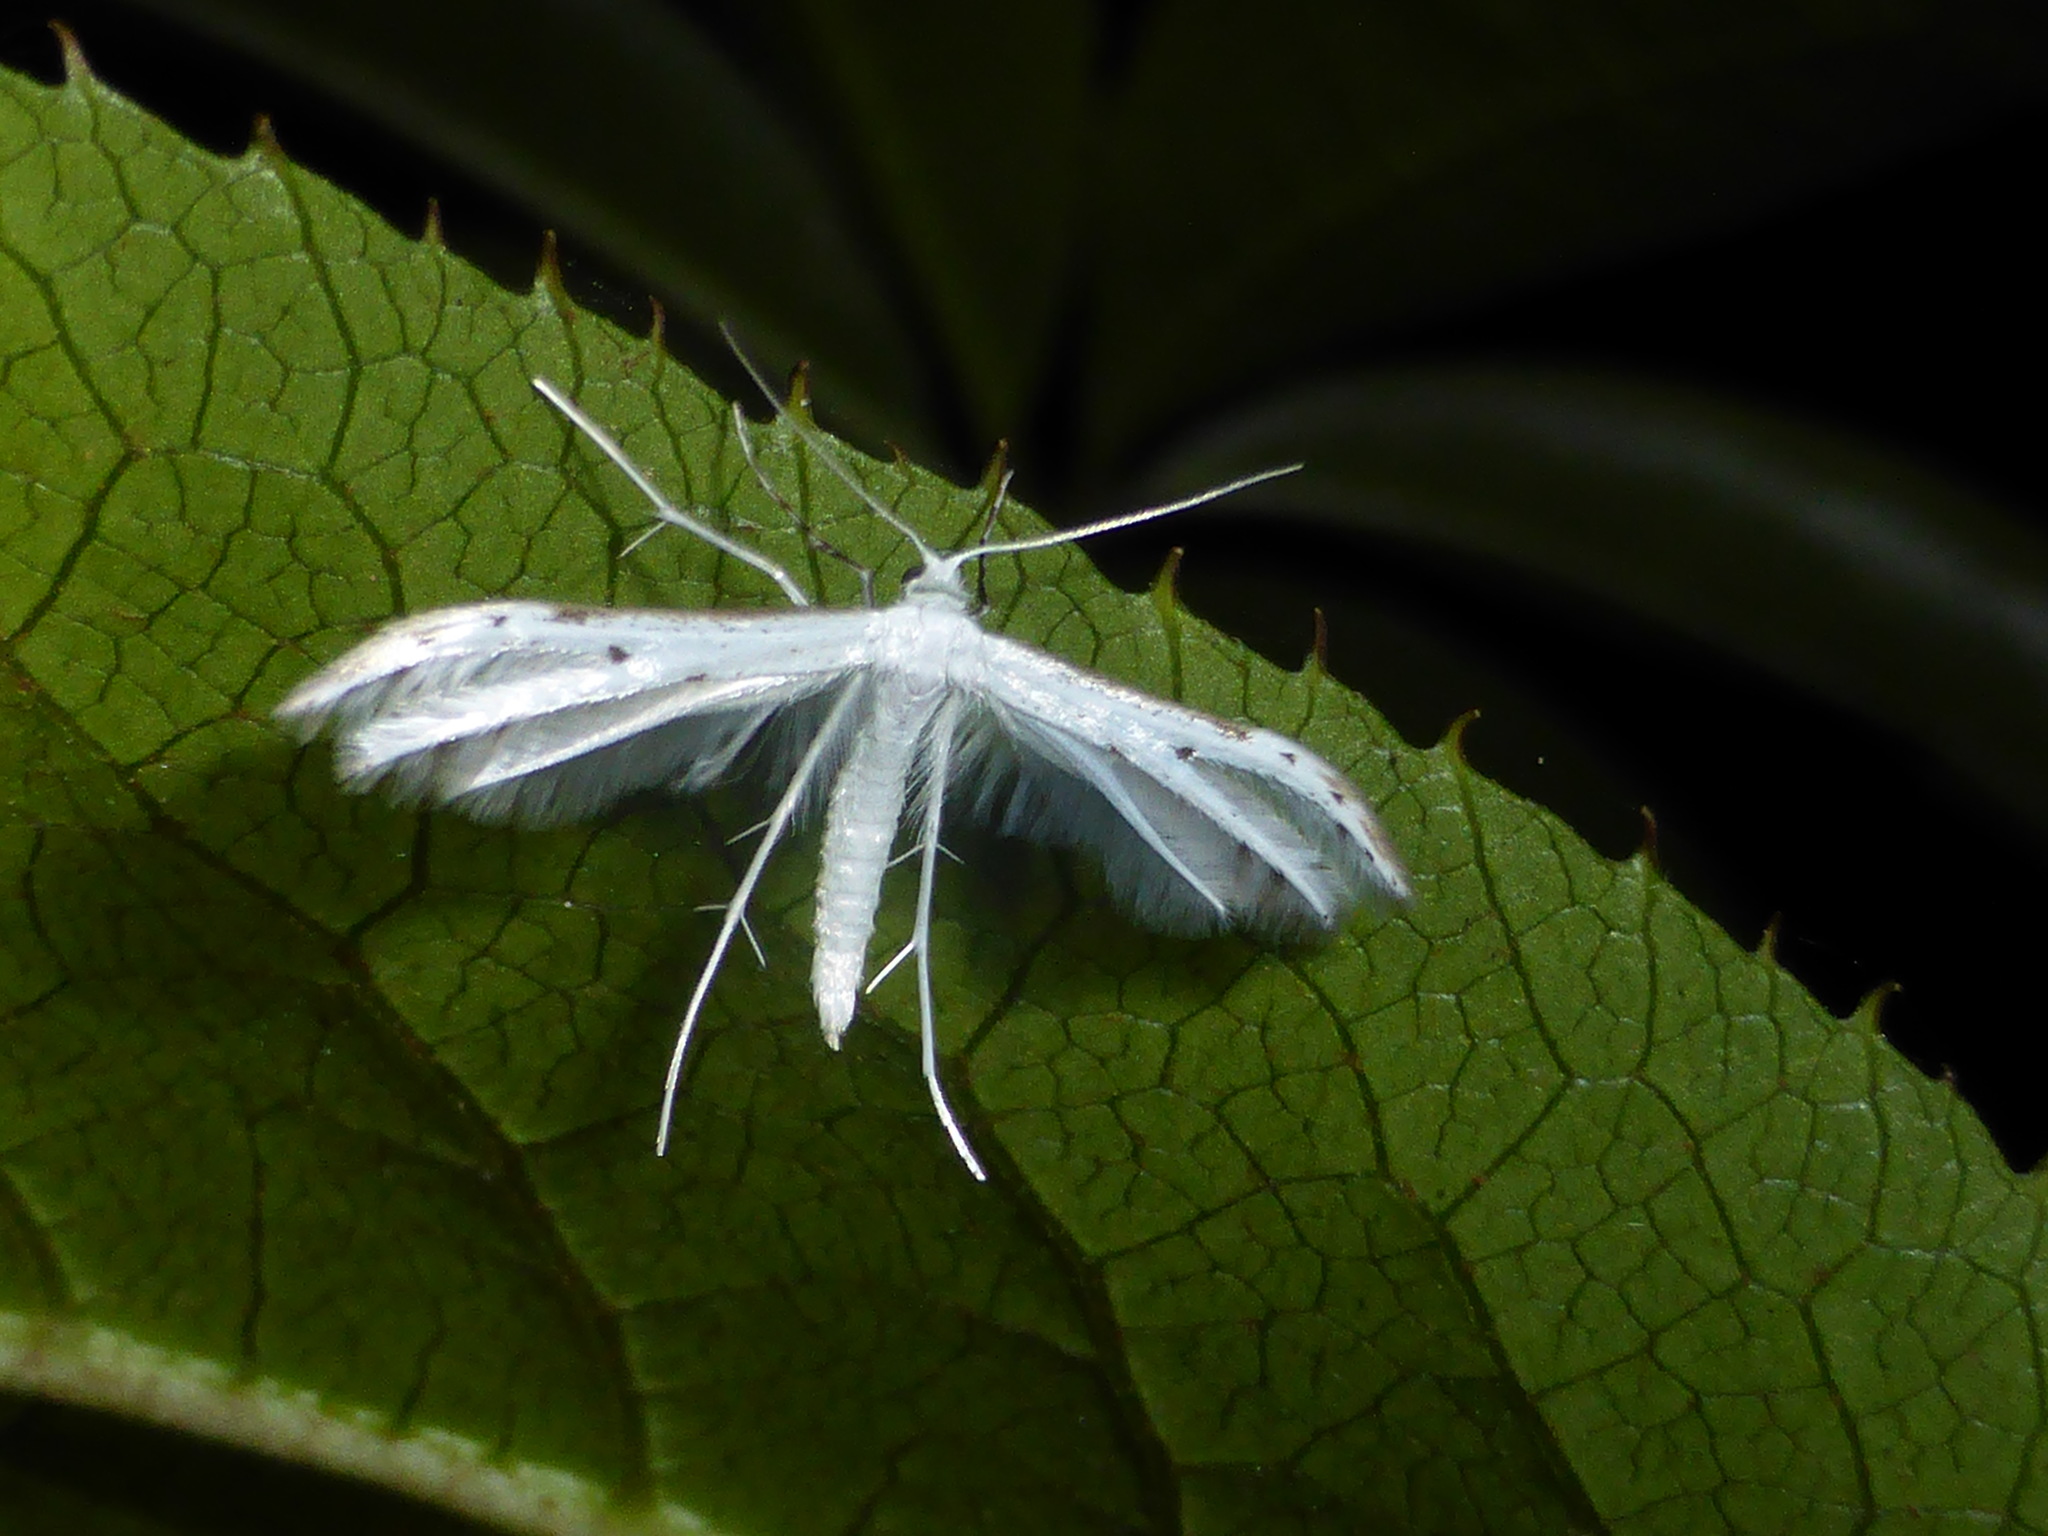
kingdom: Animalia
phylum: Arthropoda
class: Insecta
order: Lepidoptera
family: Pterophoridae
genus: Pterophorus
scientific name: Pterophorus monospilalis
